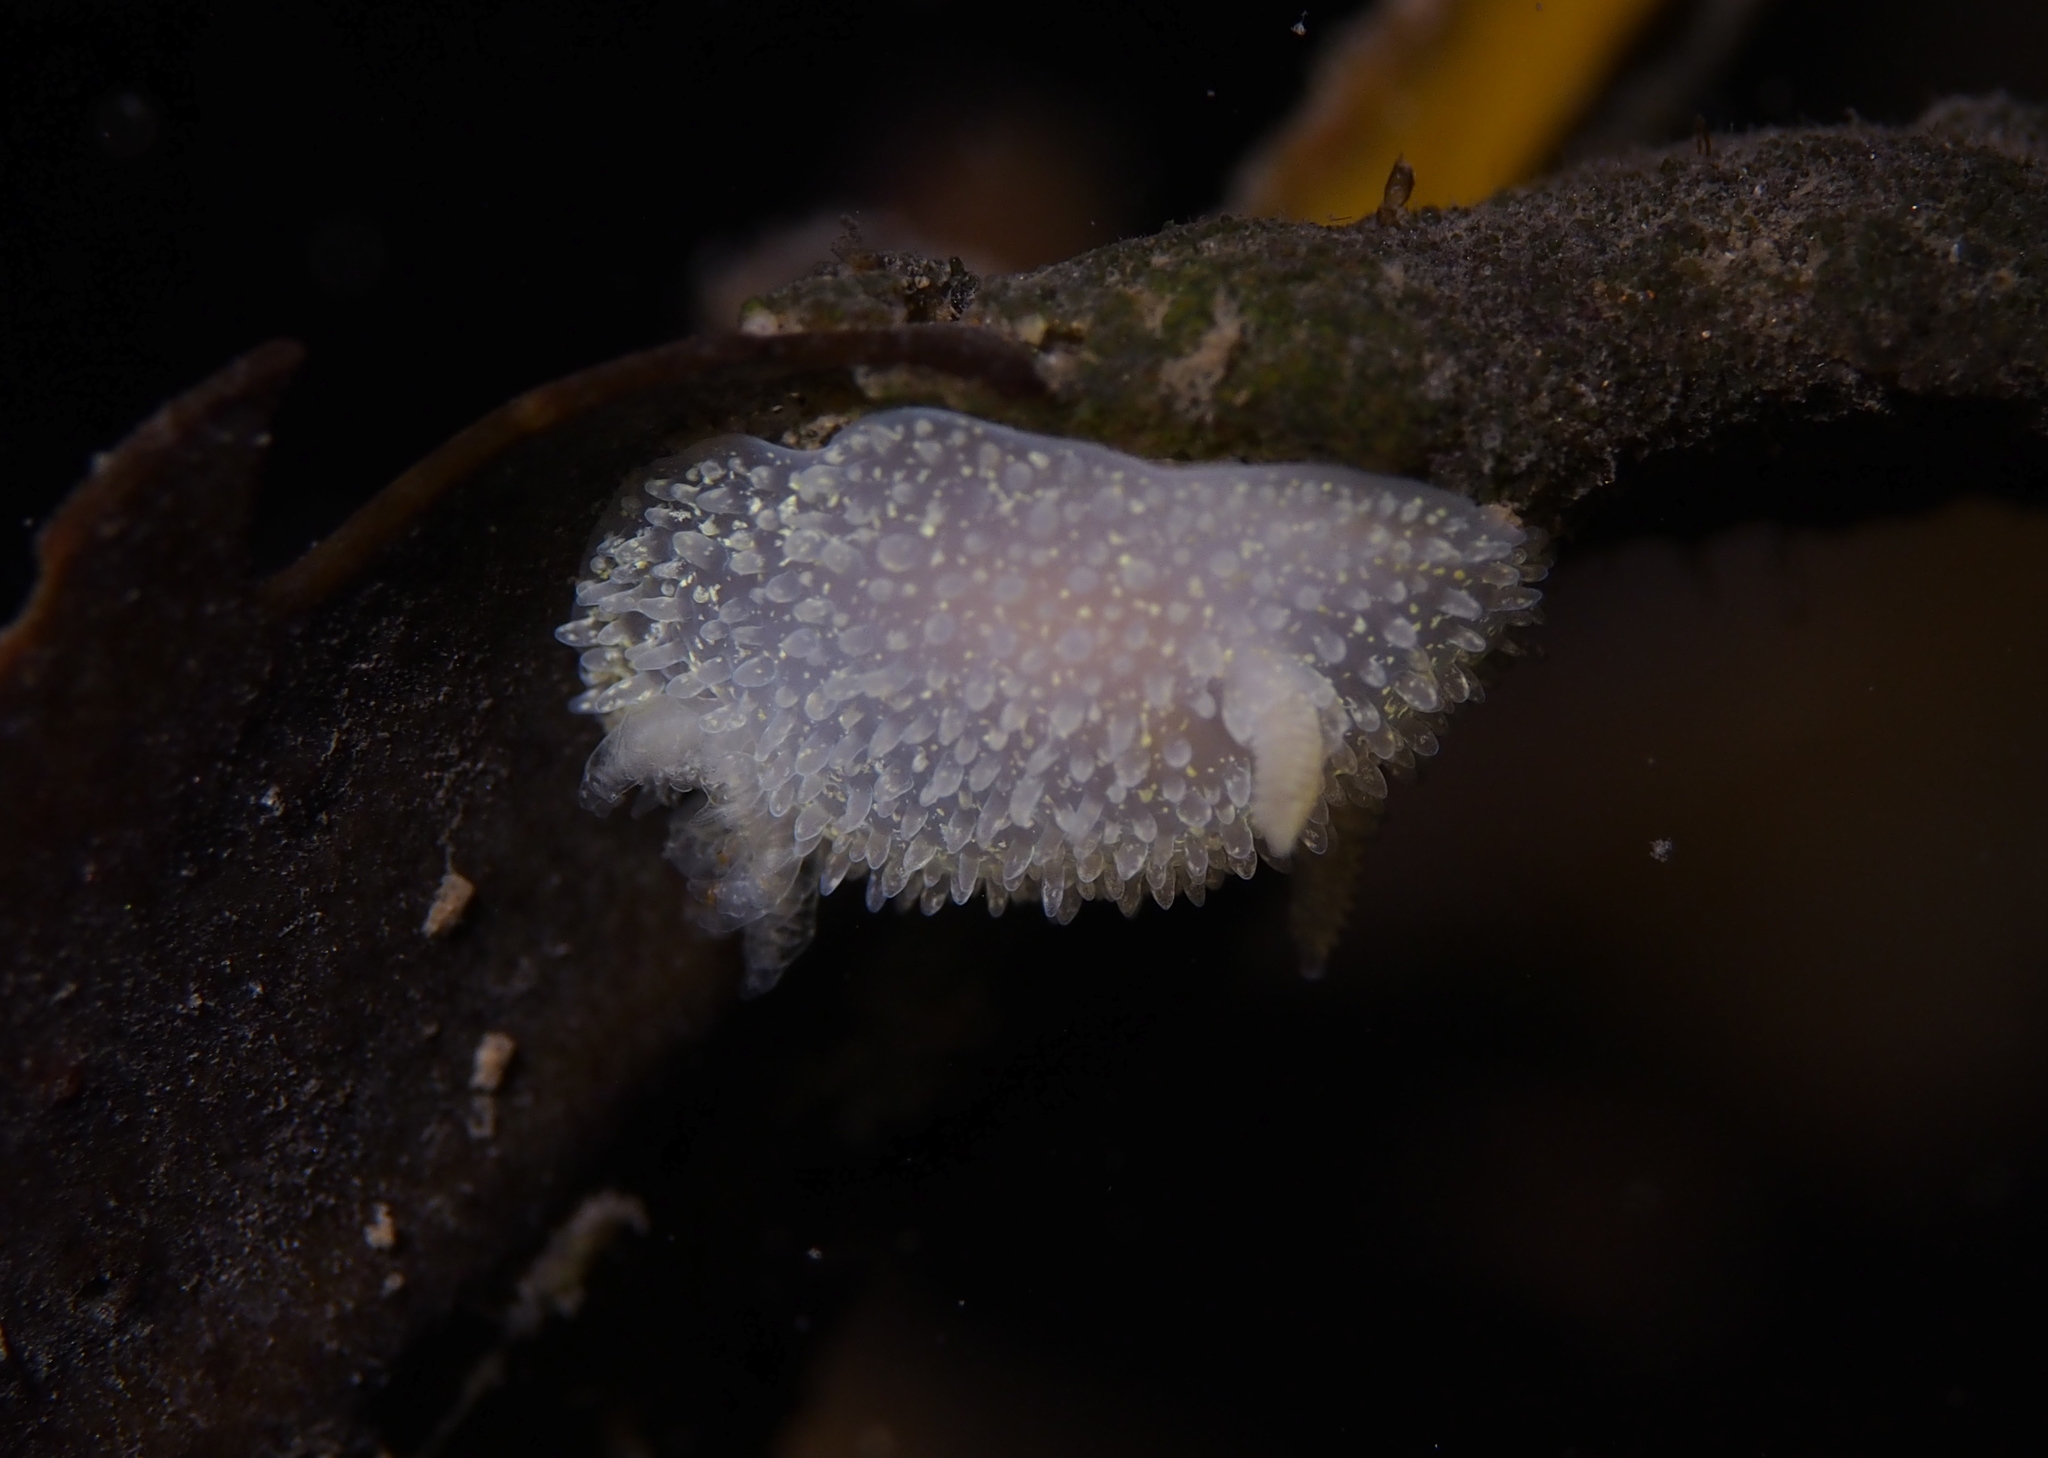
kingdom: Animalia
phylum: Mollusca
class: Gastropoda
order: Nudibranchia
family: Onchidorididae
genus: Acanthodoris
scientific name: Acanthodoris pilosa
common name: Hairy spiny doris
